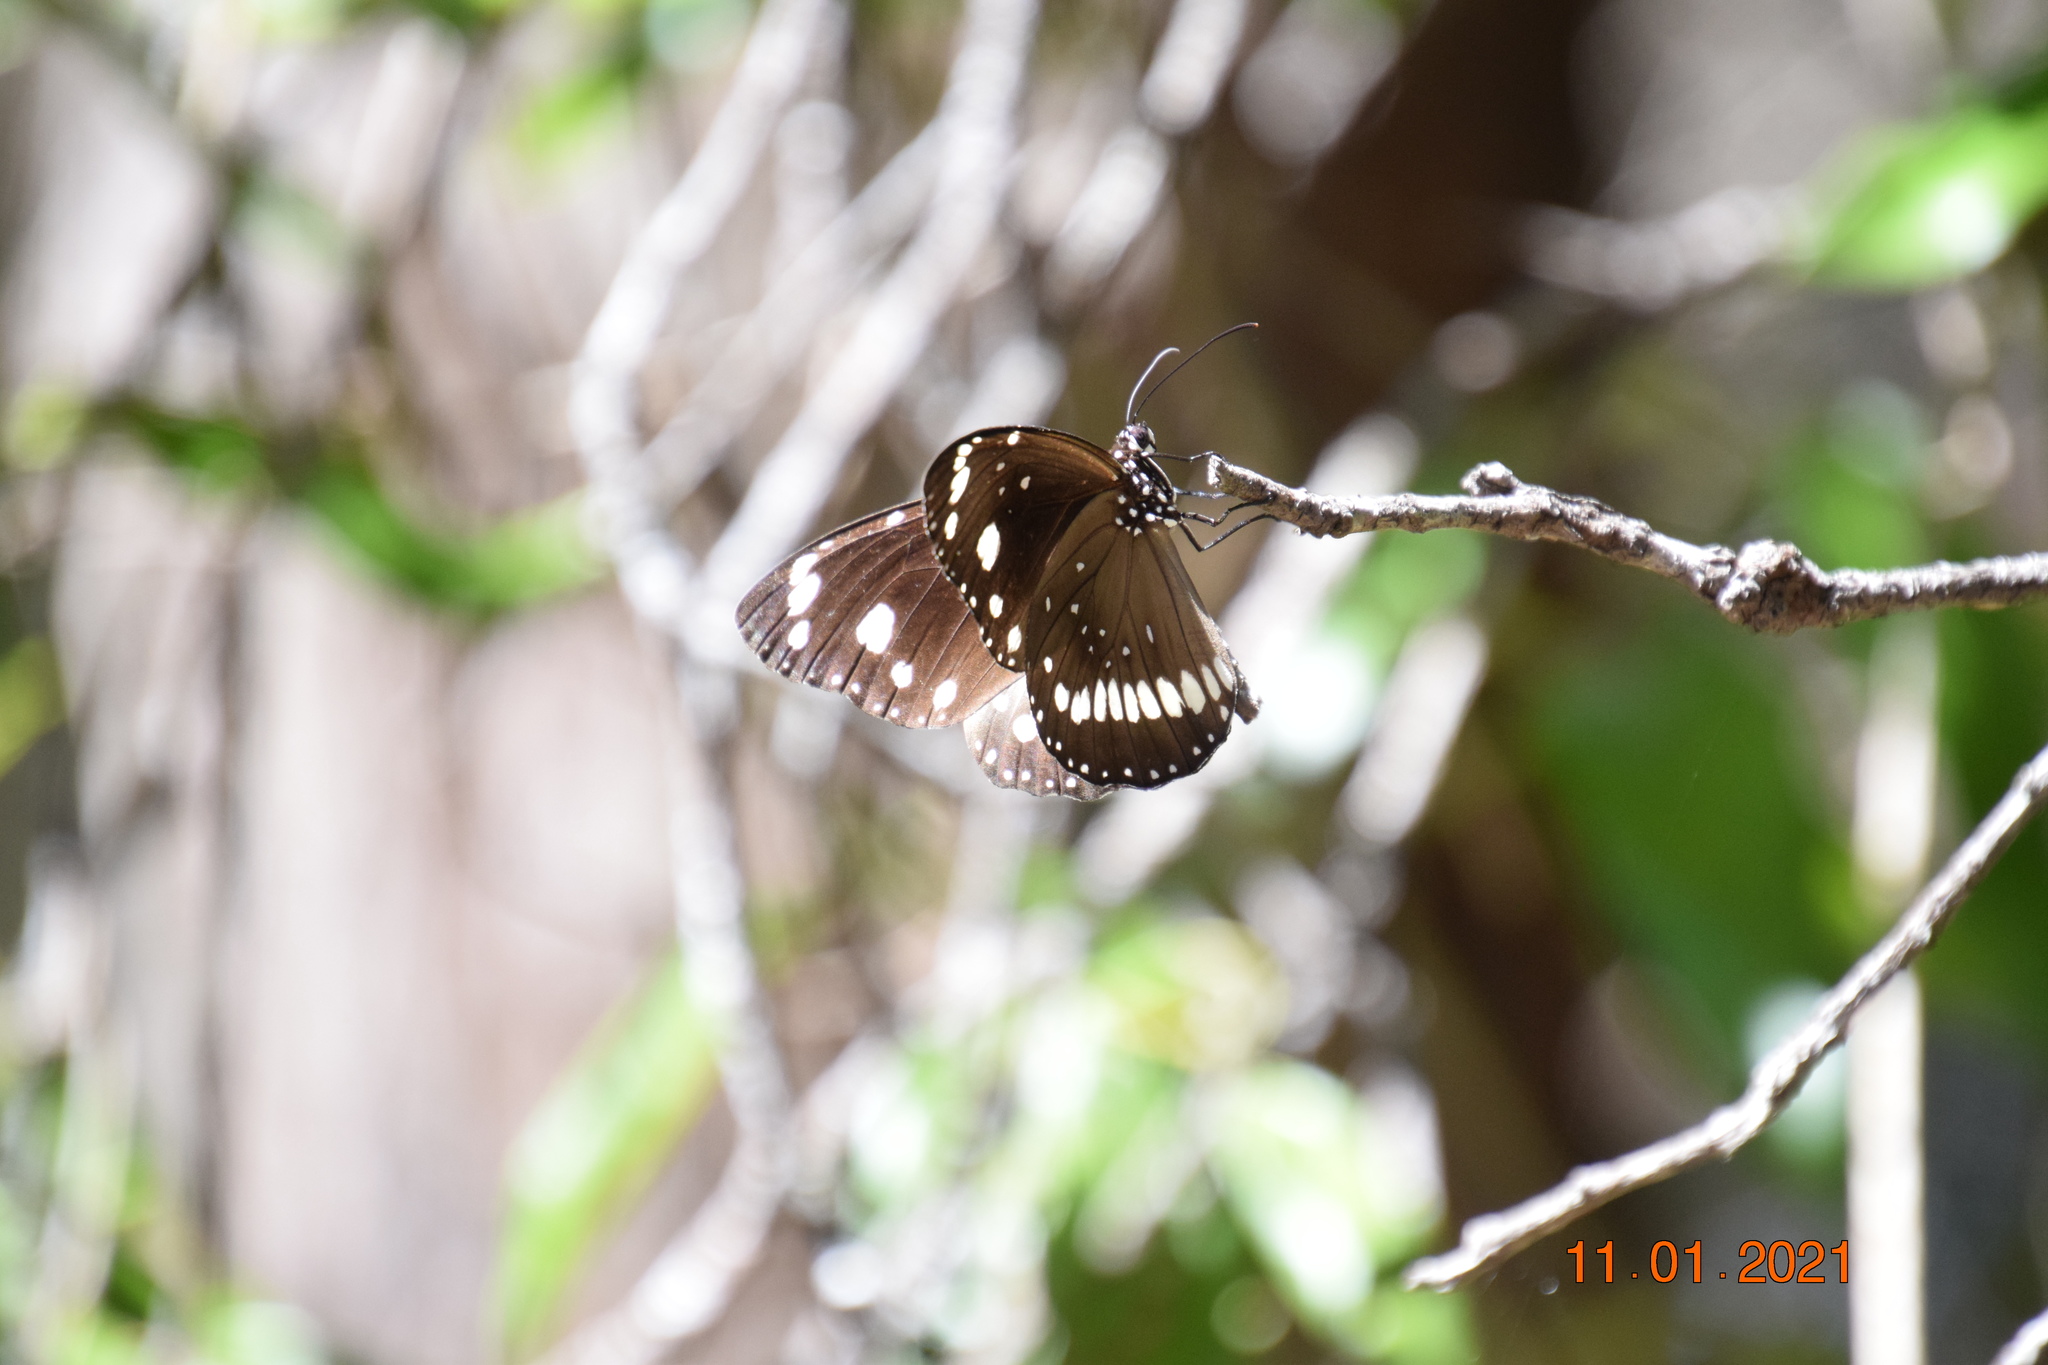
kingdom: Animalia
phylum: Arthropoda
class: Insecta
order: Lepidoptera
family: Nymphalidae
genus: Euploea
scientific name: Euploea core
